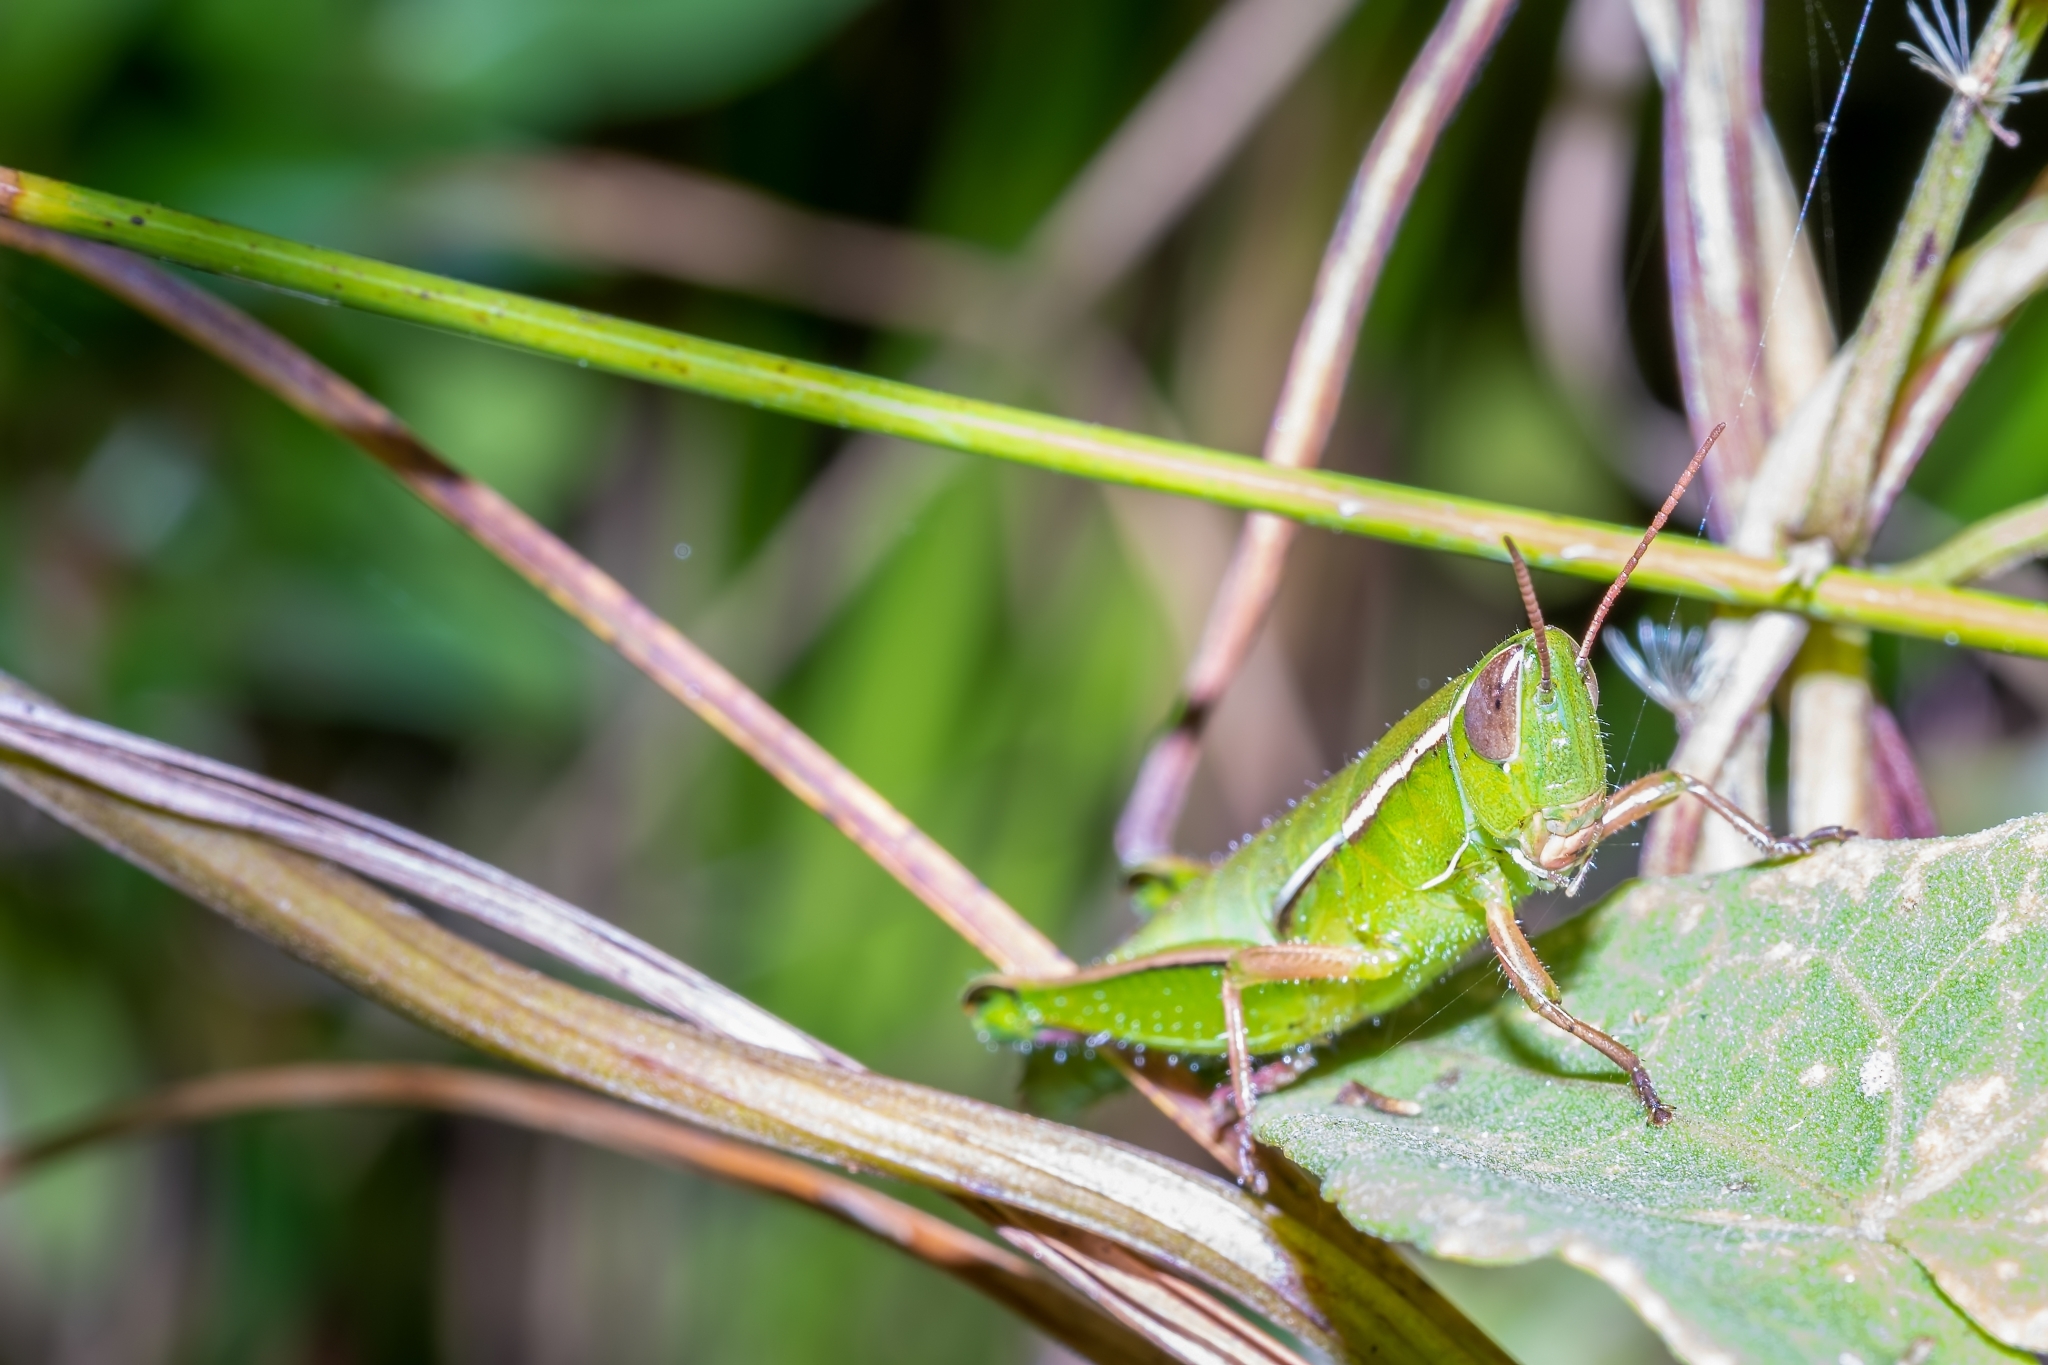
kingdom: Animalia
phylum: Arthropoda
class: Insecta
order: Orthoptera
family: Acrididae
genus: Aptenopedes
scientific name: Aptenopedes sphenarioides
